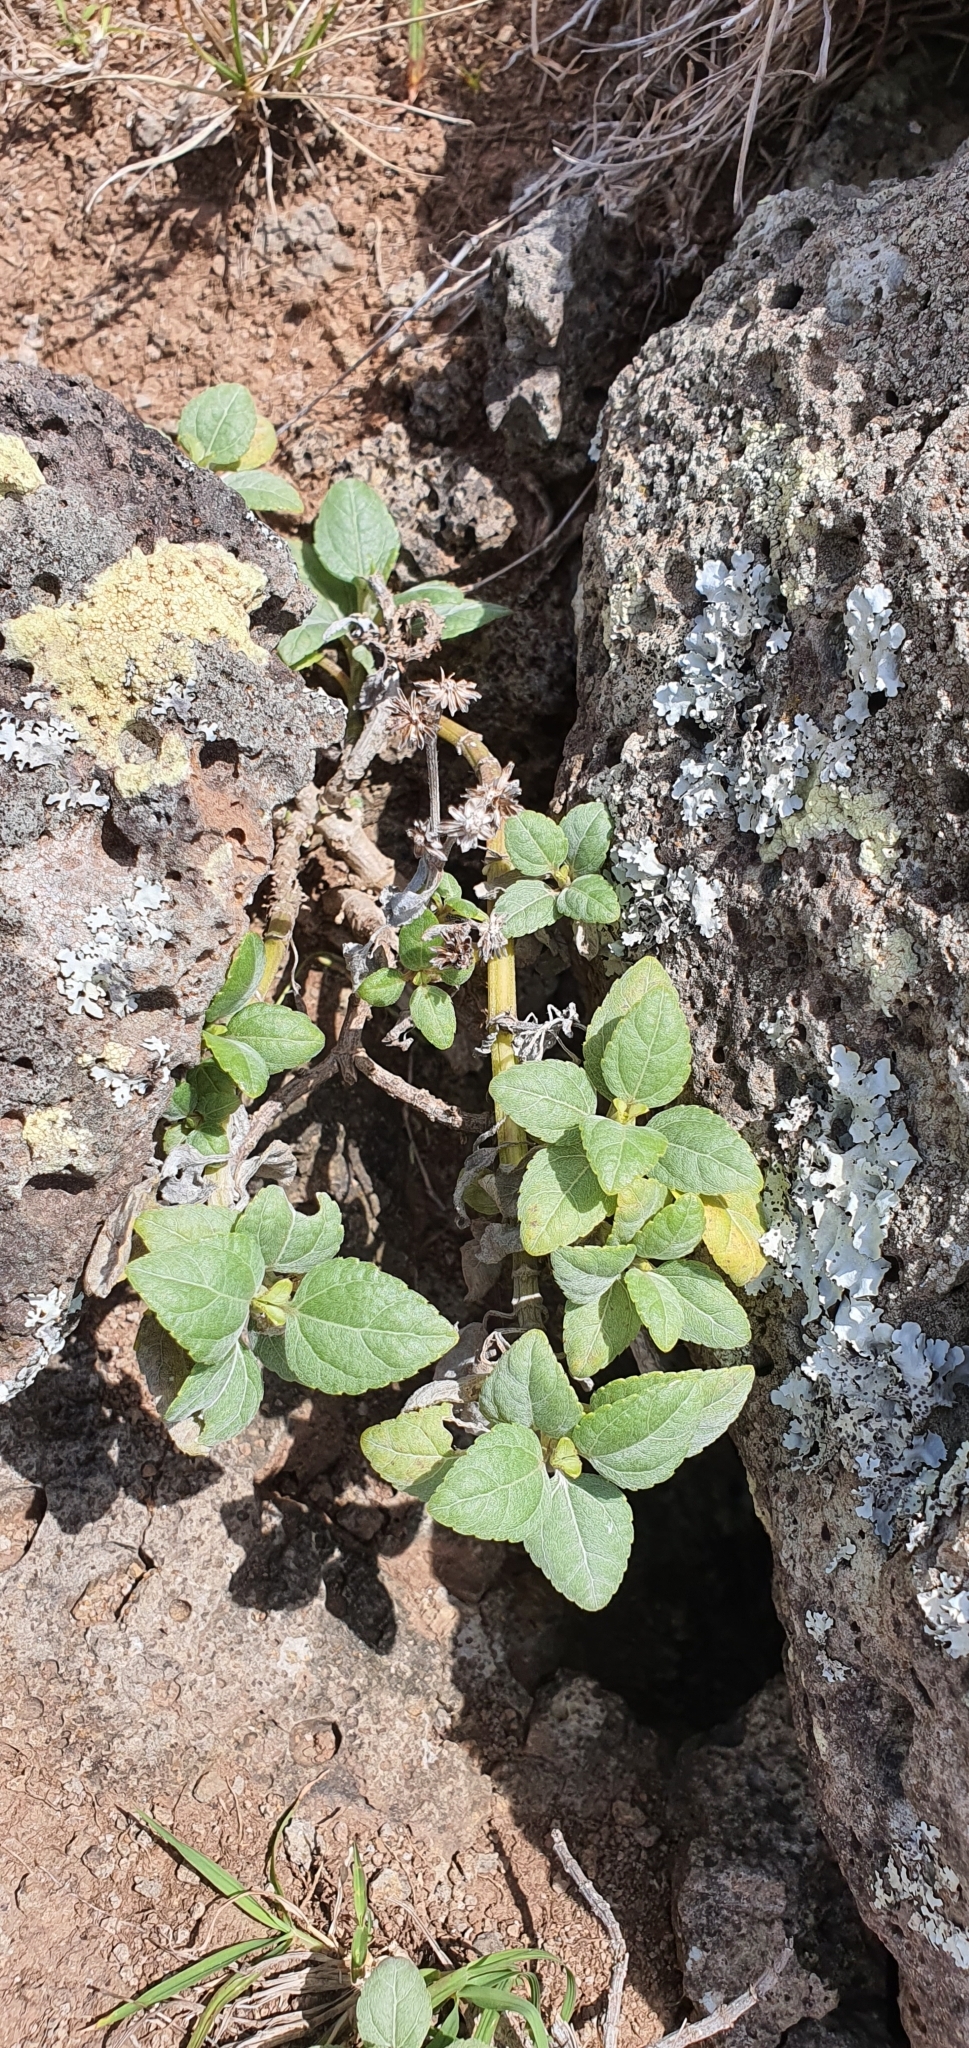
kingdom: Plantae
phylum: Tracheophyta
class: Magnoliopsida
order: Asterales
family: Asteraceae
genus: Wollastonia
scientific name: Wollastonia uniflora
